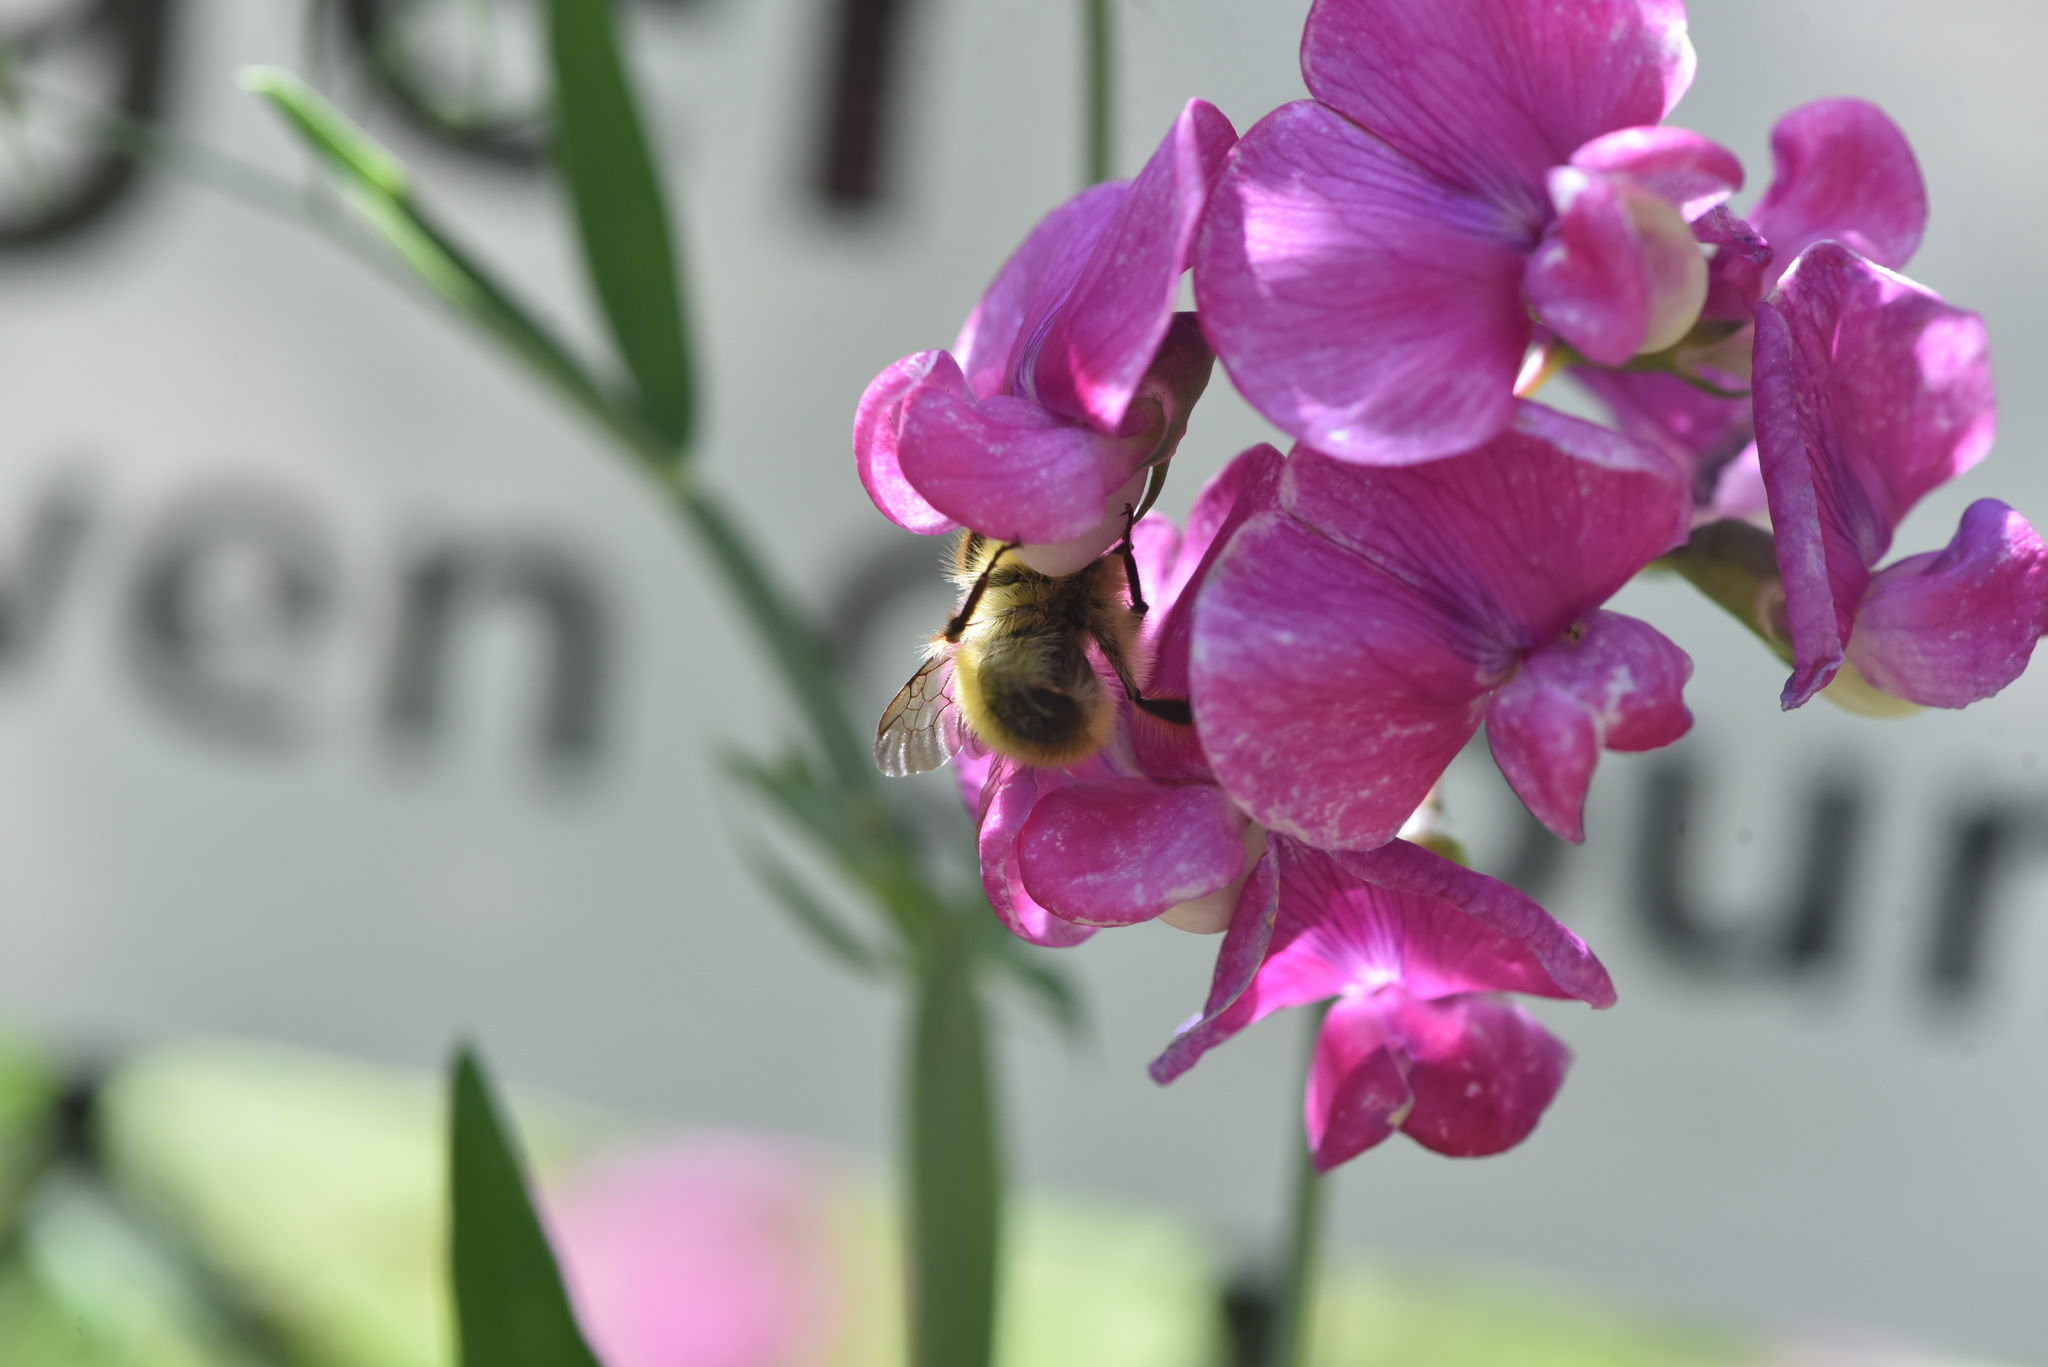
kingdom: Plantae
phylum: Tracheophyta
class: Magnoliopsida
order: Fabales
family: Fabaceae
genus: Lathyrus
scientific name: Lathyrus latifolius
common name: Perennial pea
